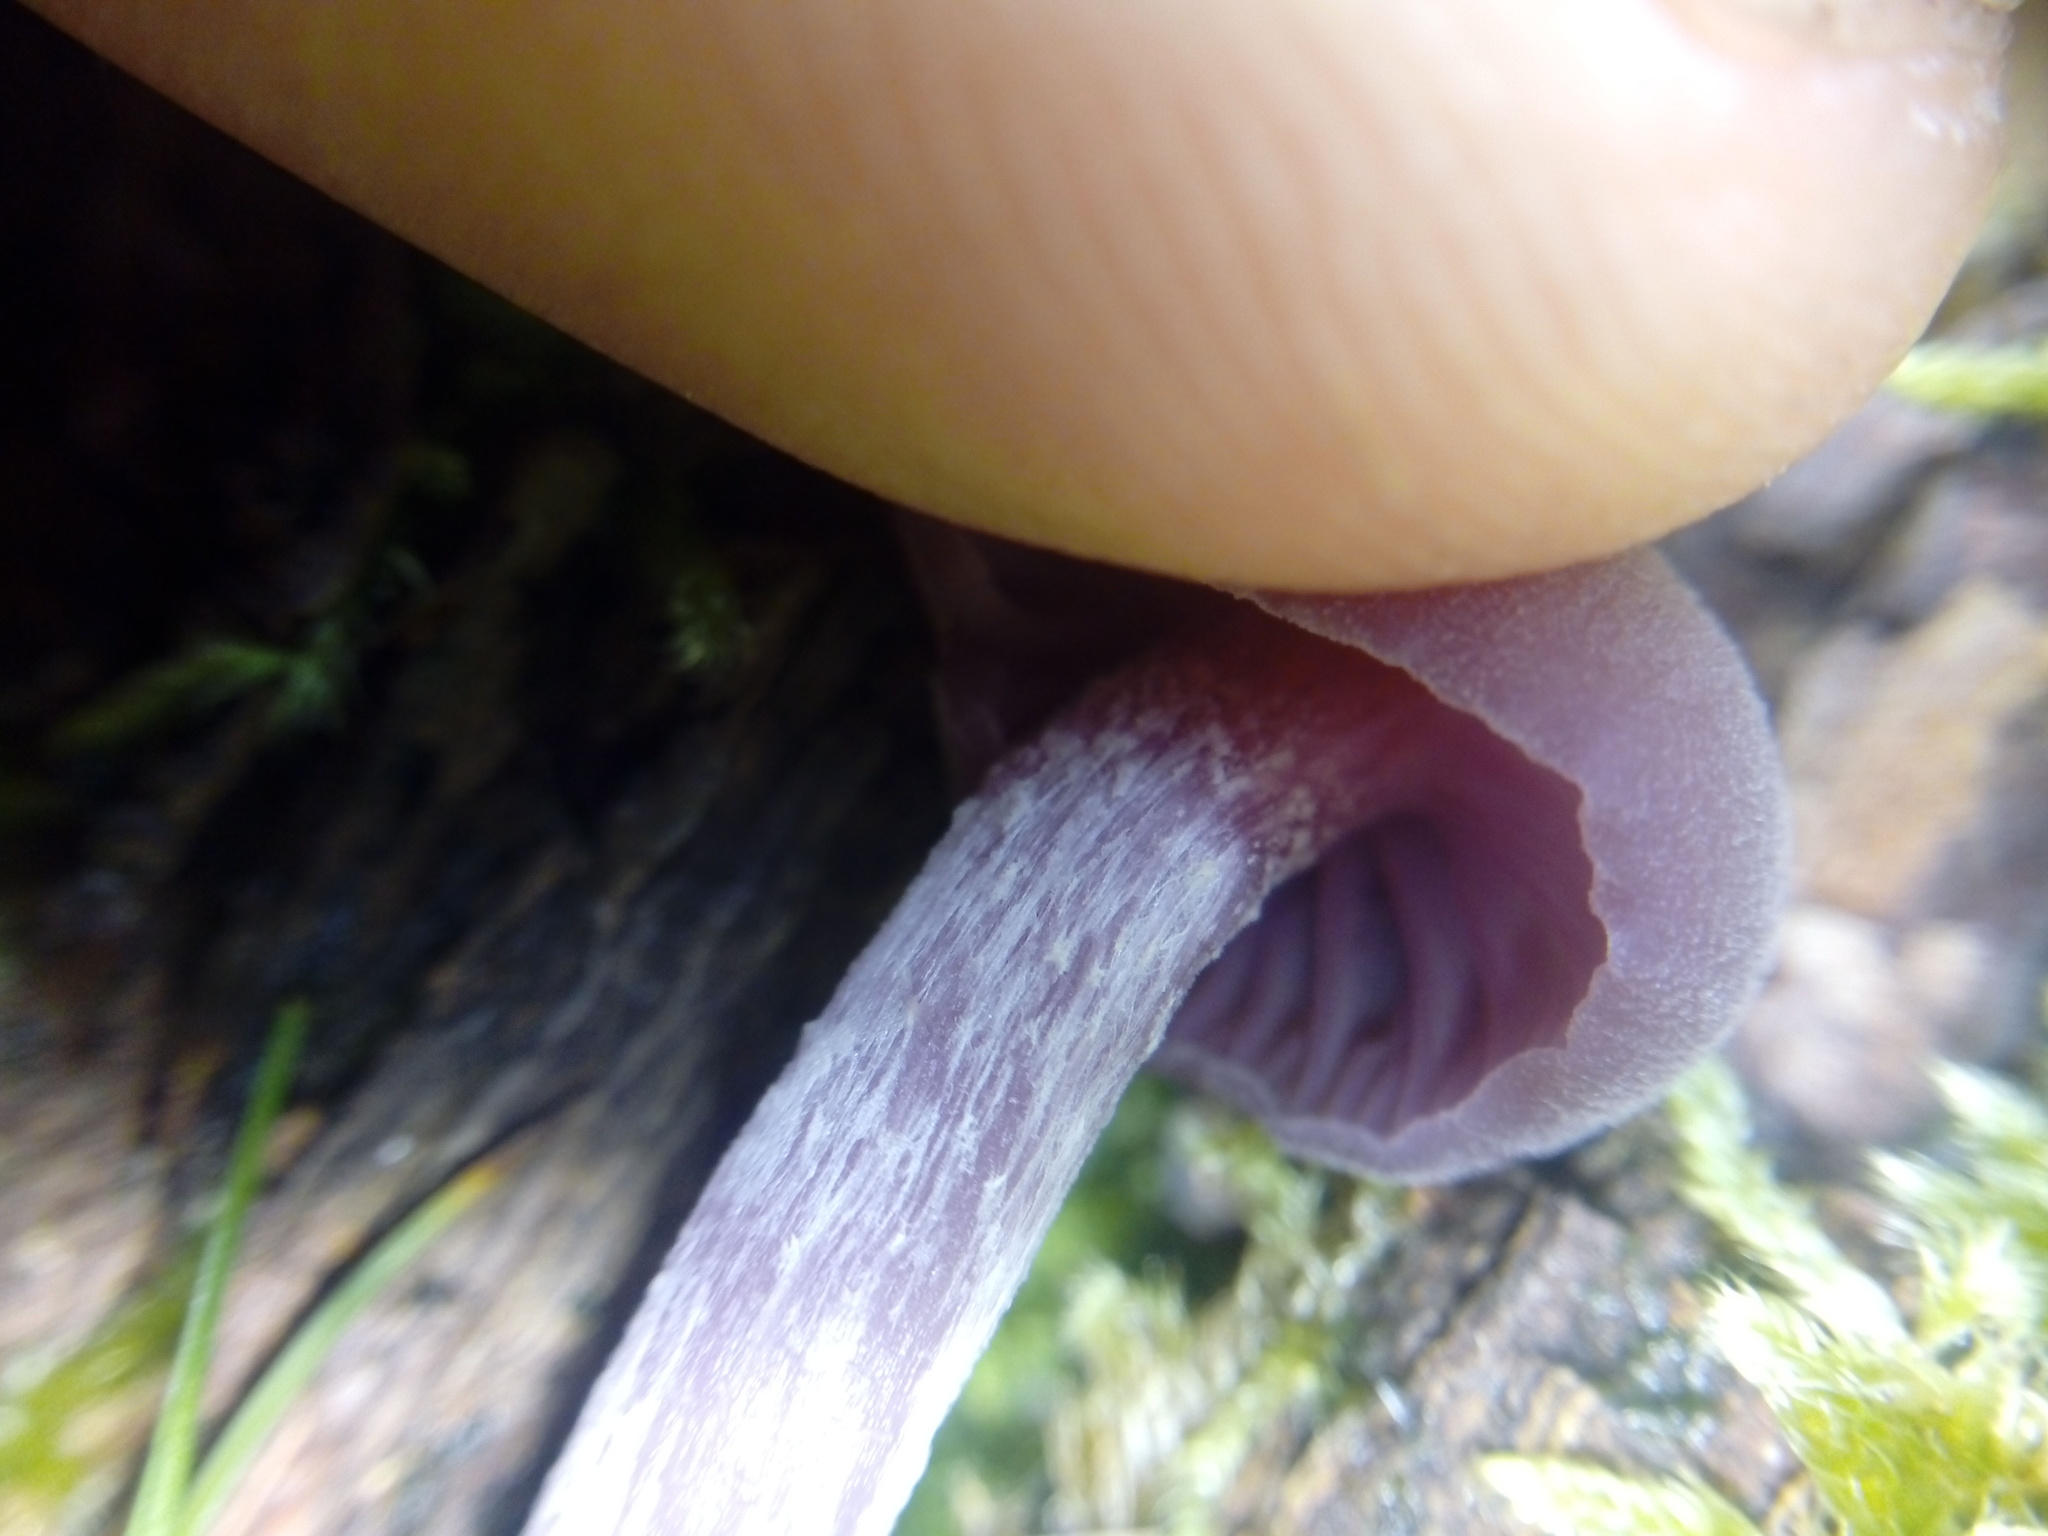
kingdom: Fungi
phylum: Basidiomycota
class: Agaricomycetes
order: Agaricales
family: Hydnangiaceae
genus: Laccaria
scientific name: Laccaria amethystina
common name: Amethyst deceiver
